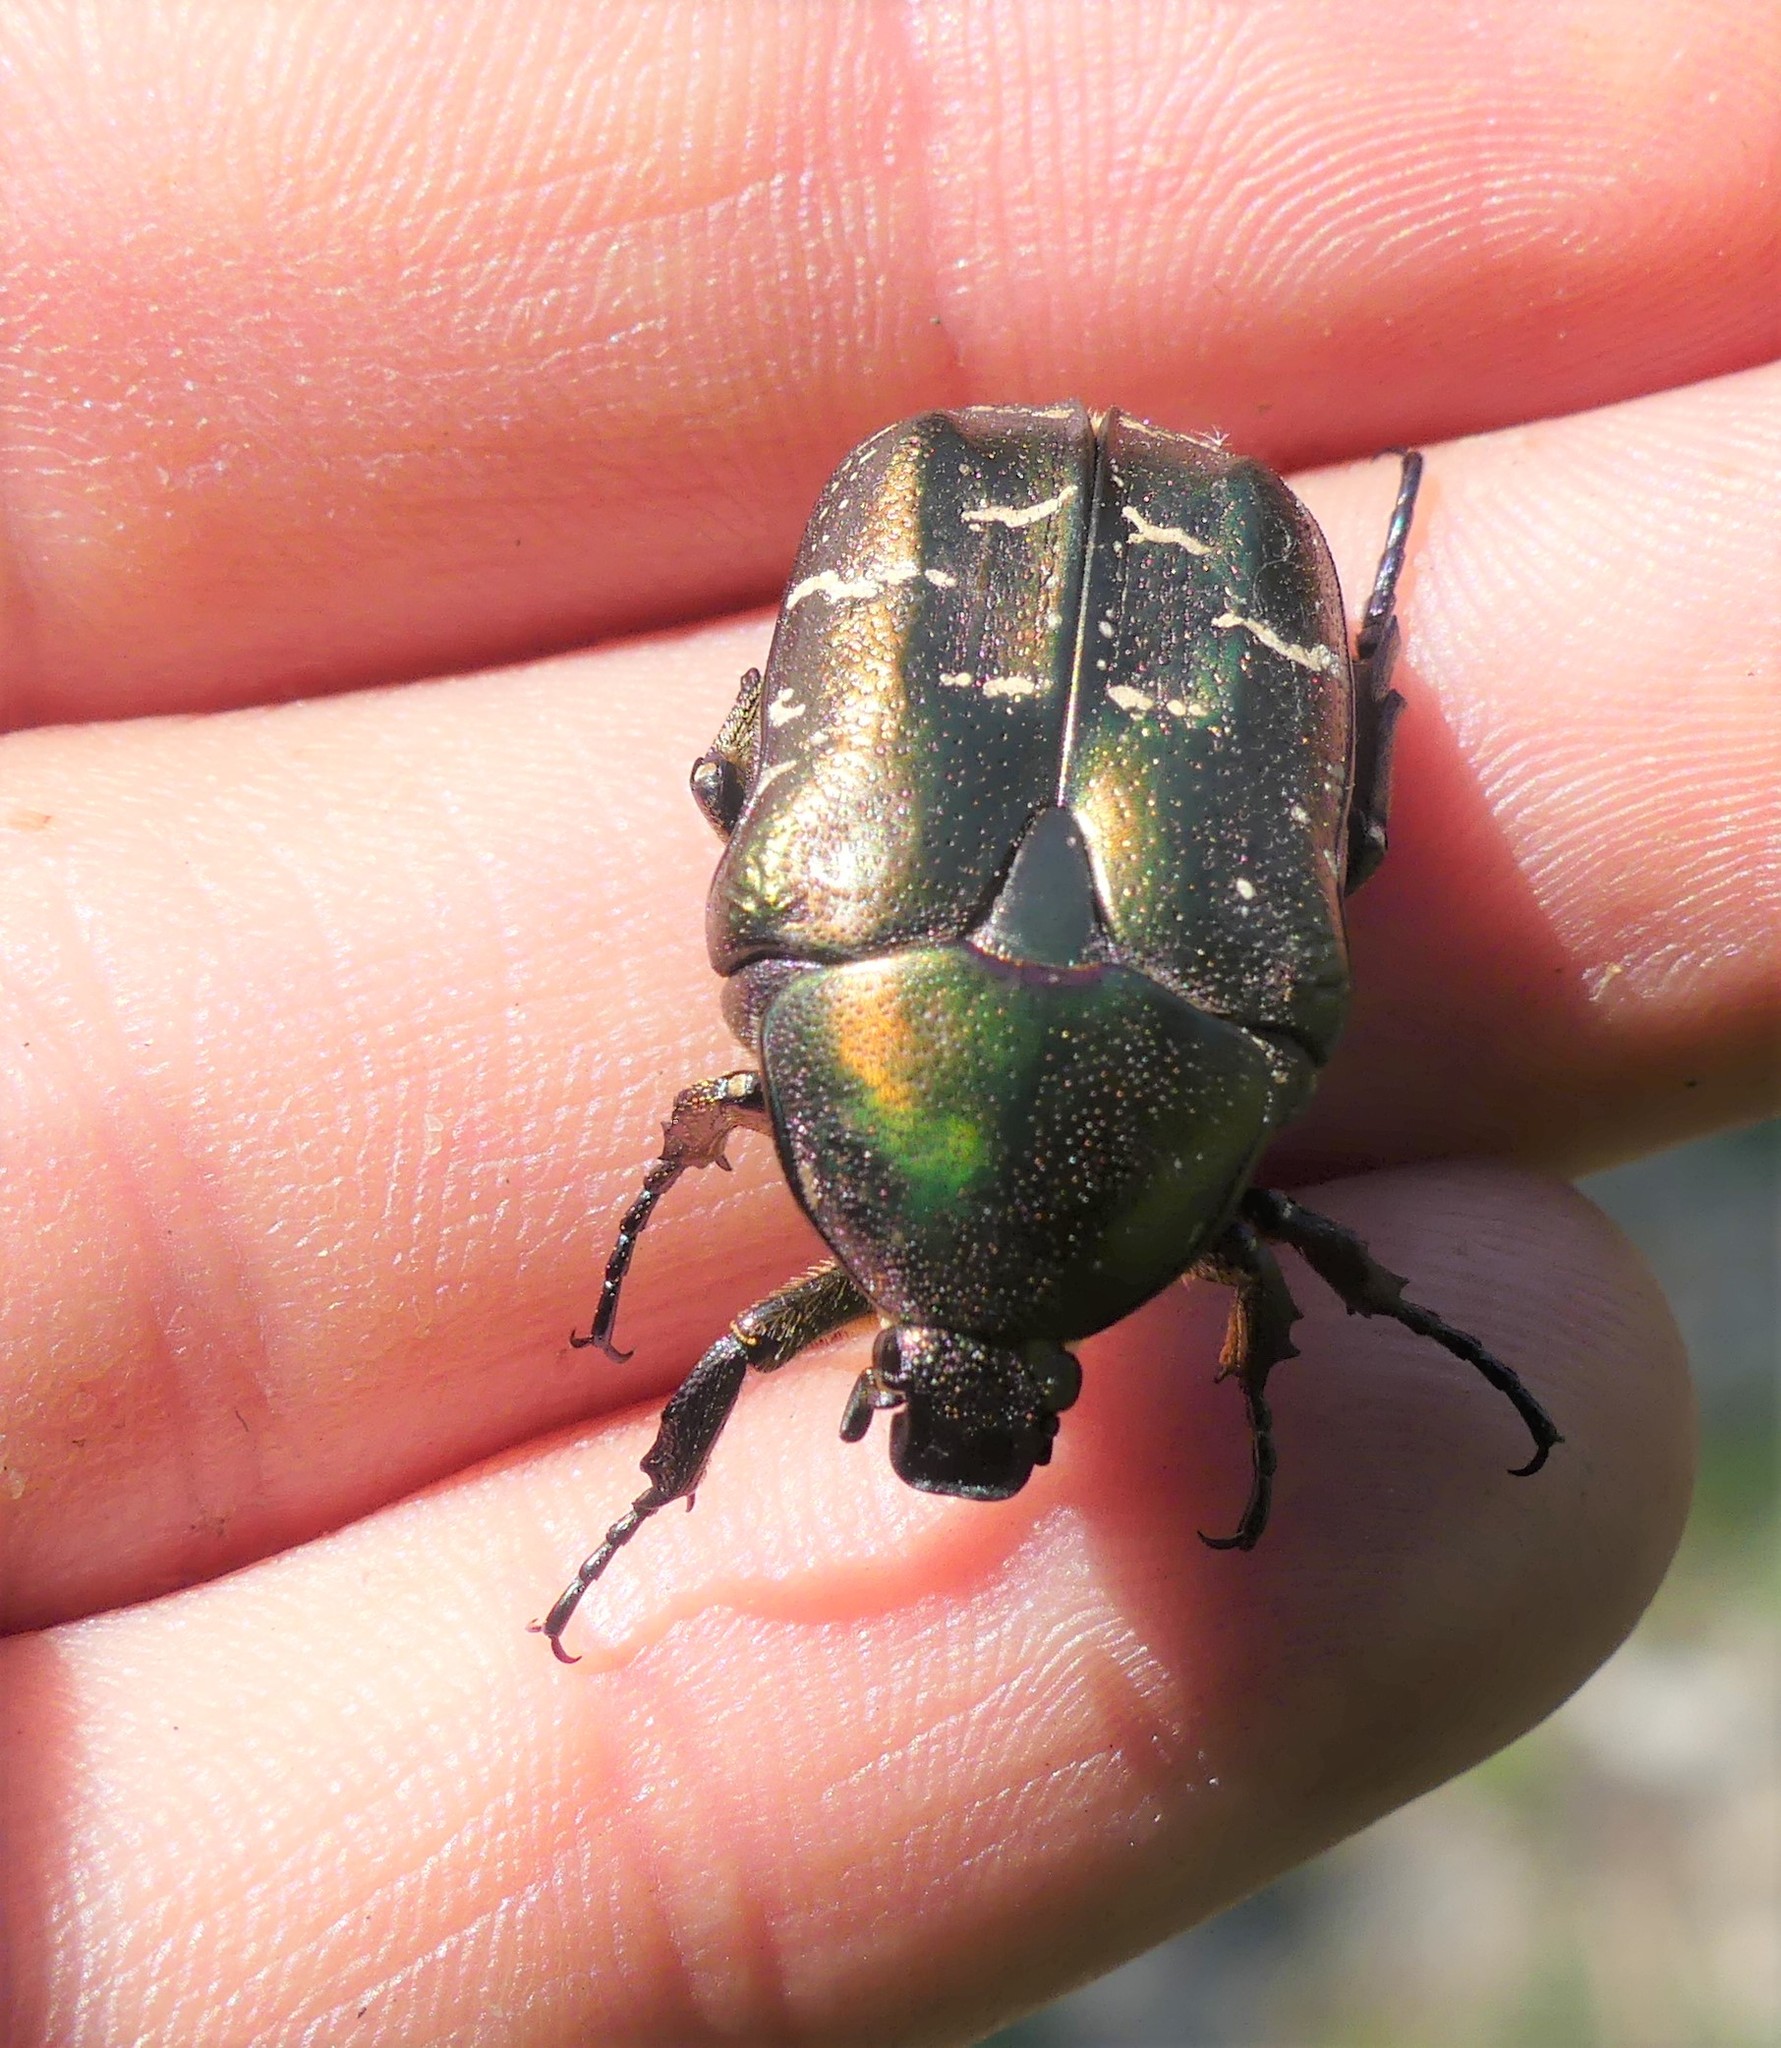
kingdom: Animalia
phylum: Arthropoda
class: Insecta
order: Coleoptera
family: Scarabaeidae
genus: Protaetia
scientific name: Protaetia cuprea
